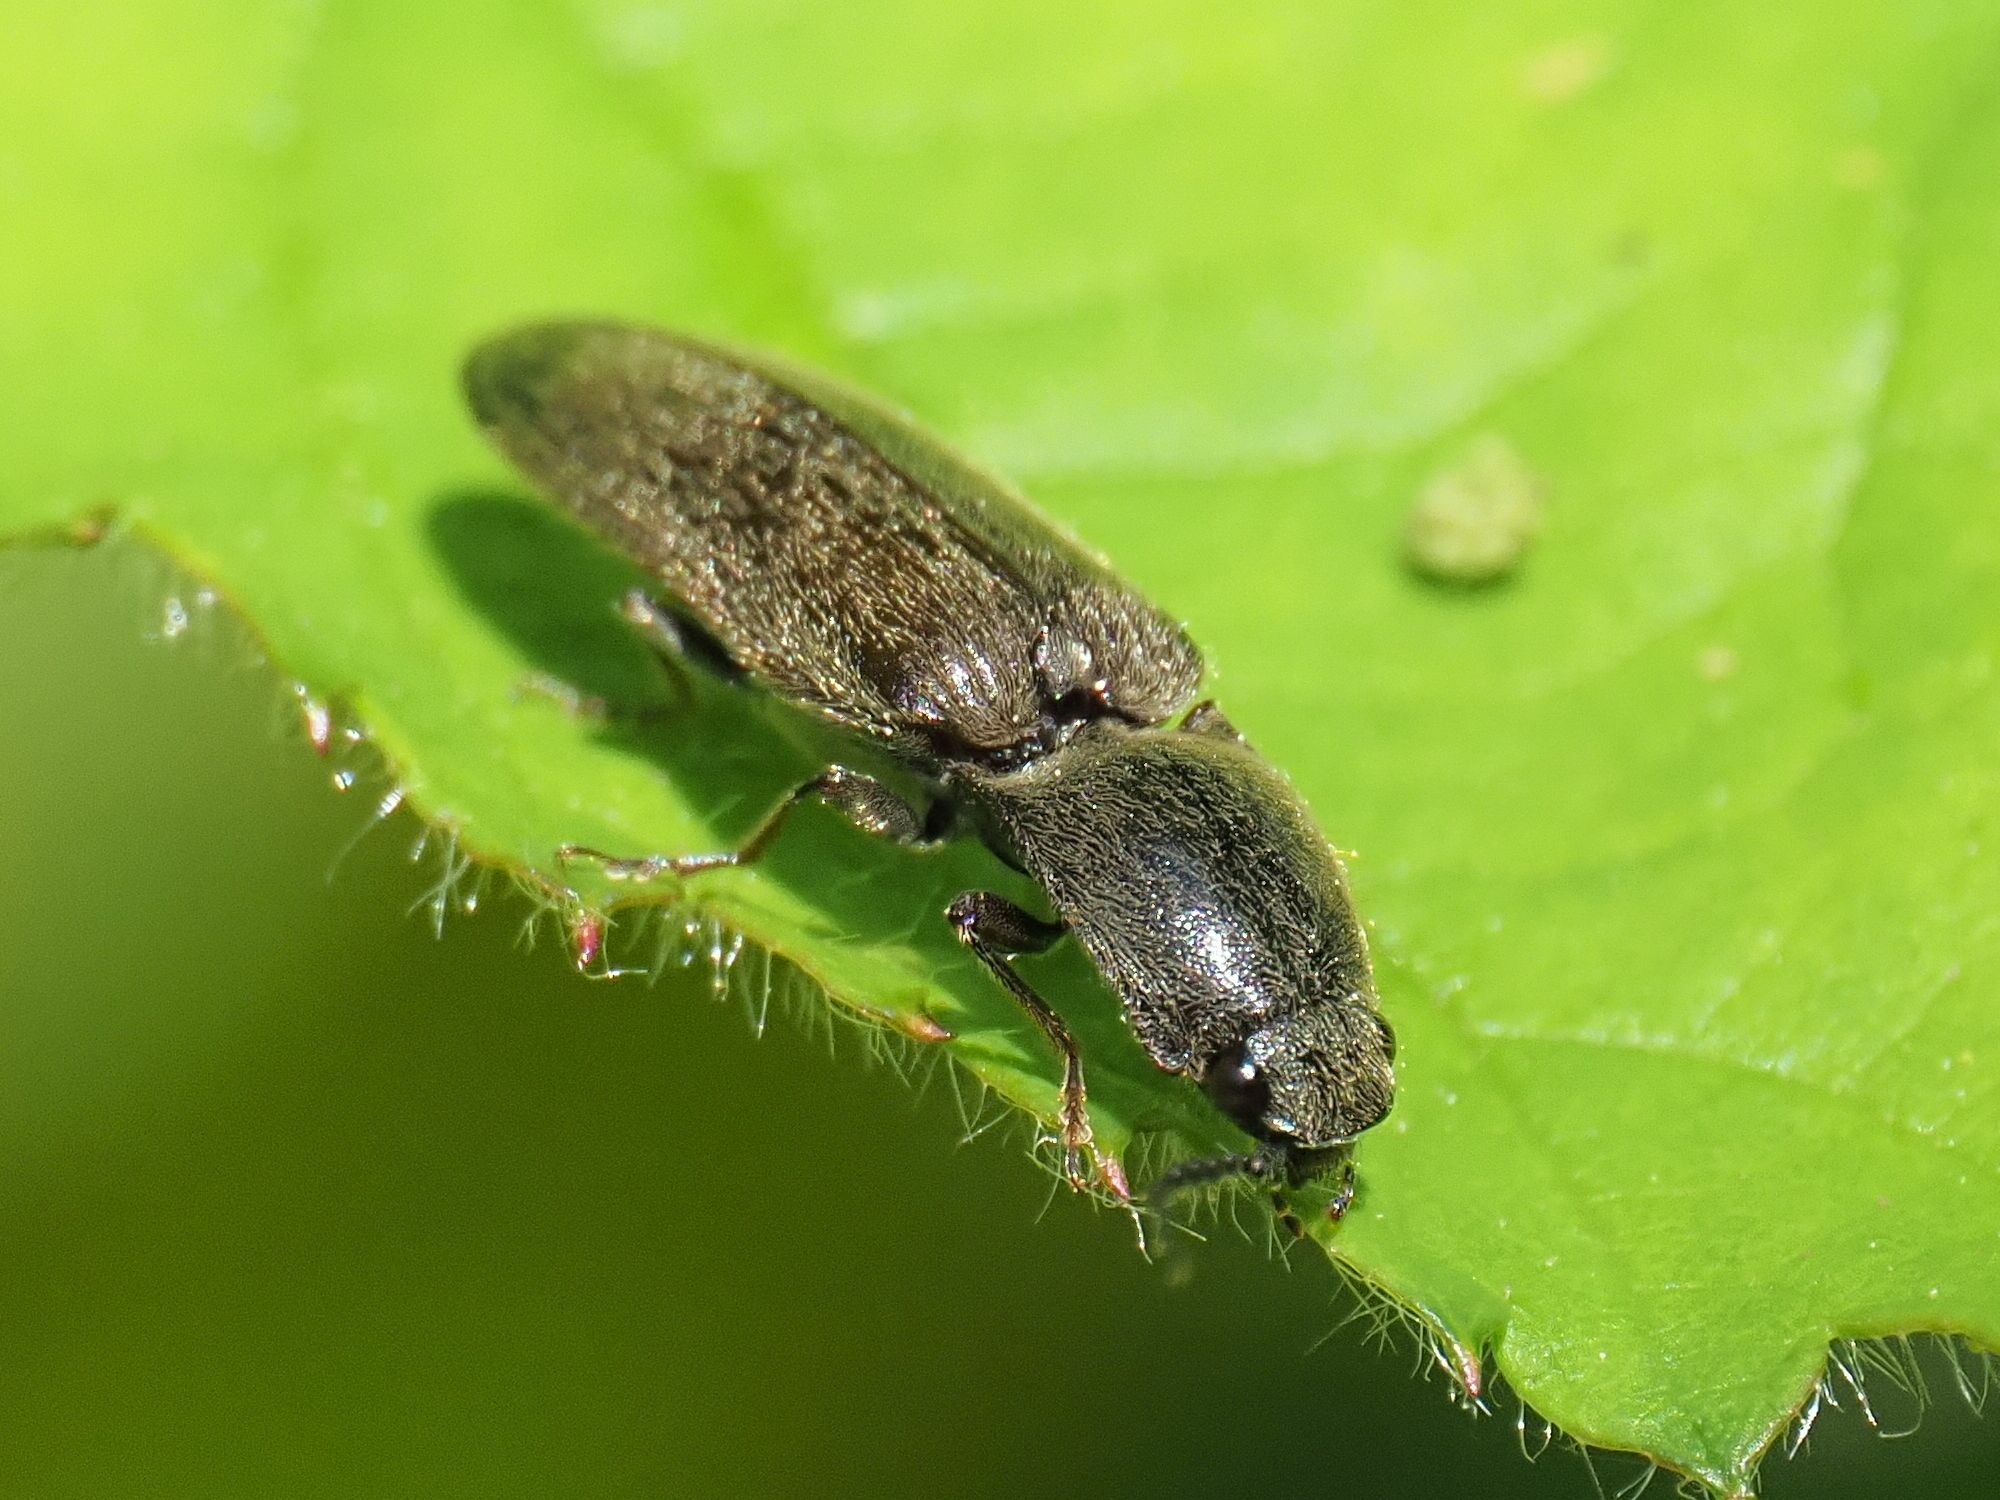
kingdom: Animalia
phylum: Arthropoda
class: Insecta
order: Coleoptera
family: Elateridae
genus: Athous
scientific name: Athous haemorrhoidalis
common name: Red-brown click beetle
